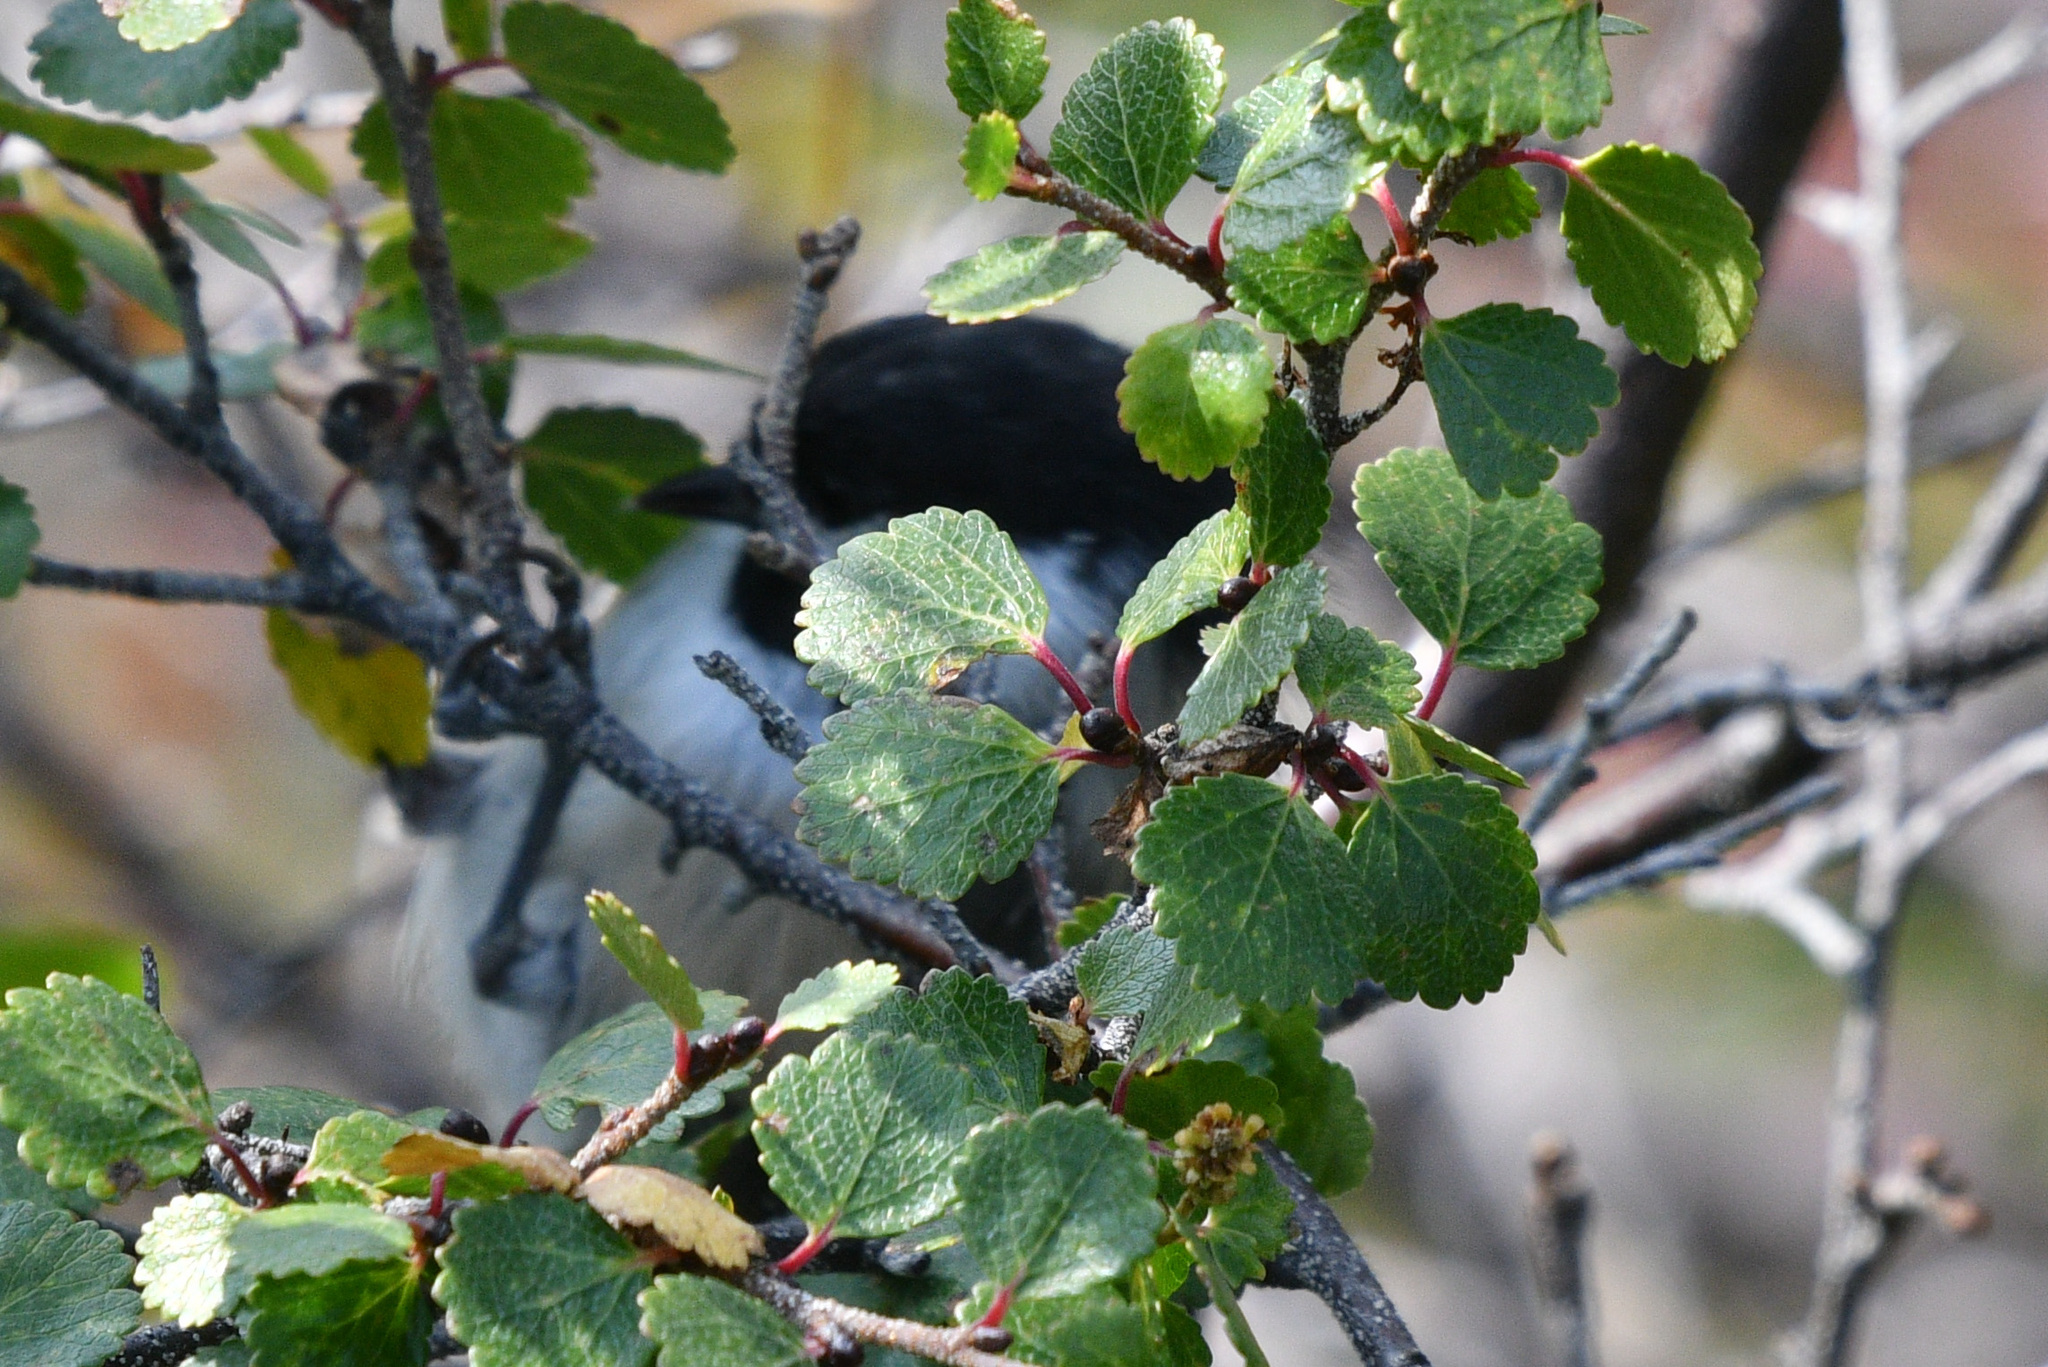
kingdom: Animalia
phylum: Chordata
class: Aves
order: Passeriformes
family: Paridae
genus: Poecile
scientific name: Poecile atricapillus
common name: Black-capped chickadee
